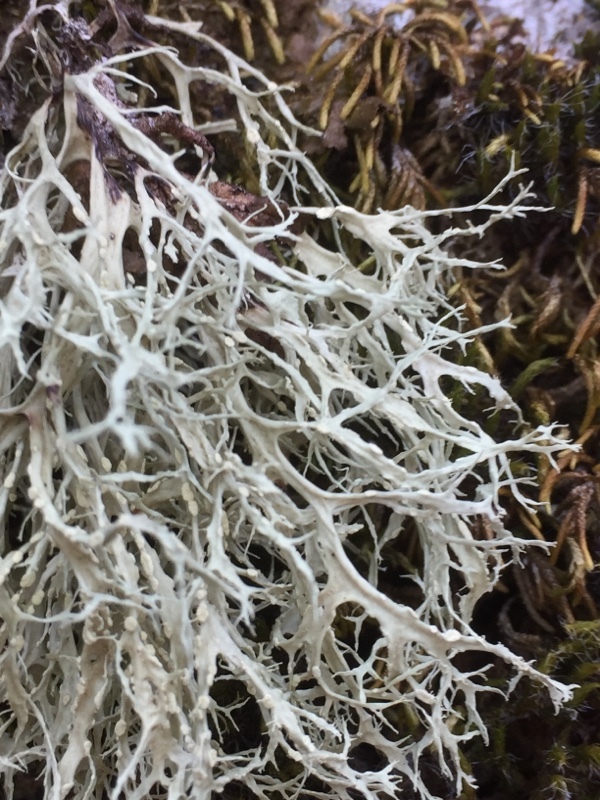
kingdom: Fungi
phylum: Ascomycota
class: Lecanoromycetes
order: Lecanorales
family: Parmeliaceae
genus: Evernia
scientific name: Evernia prunastri
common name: Oak moss
